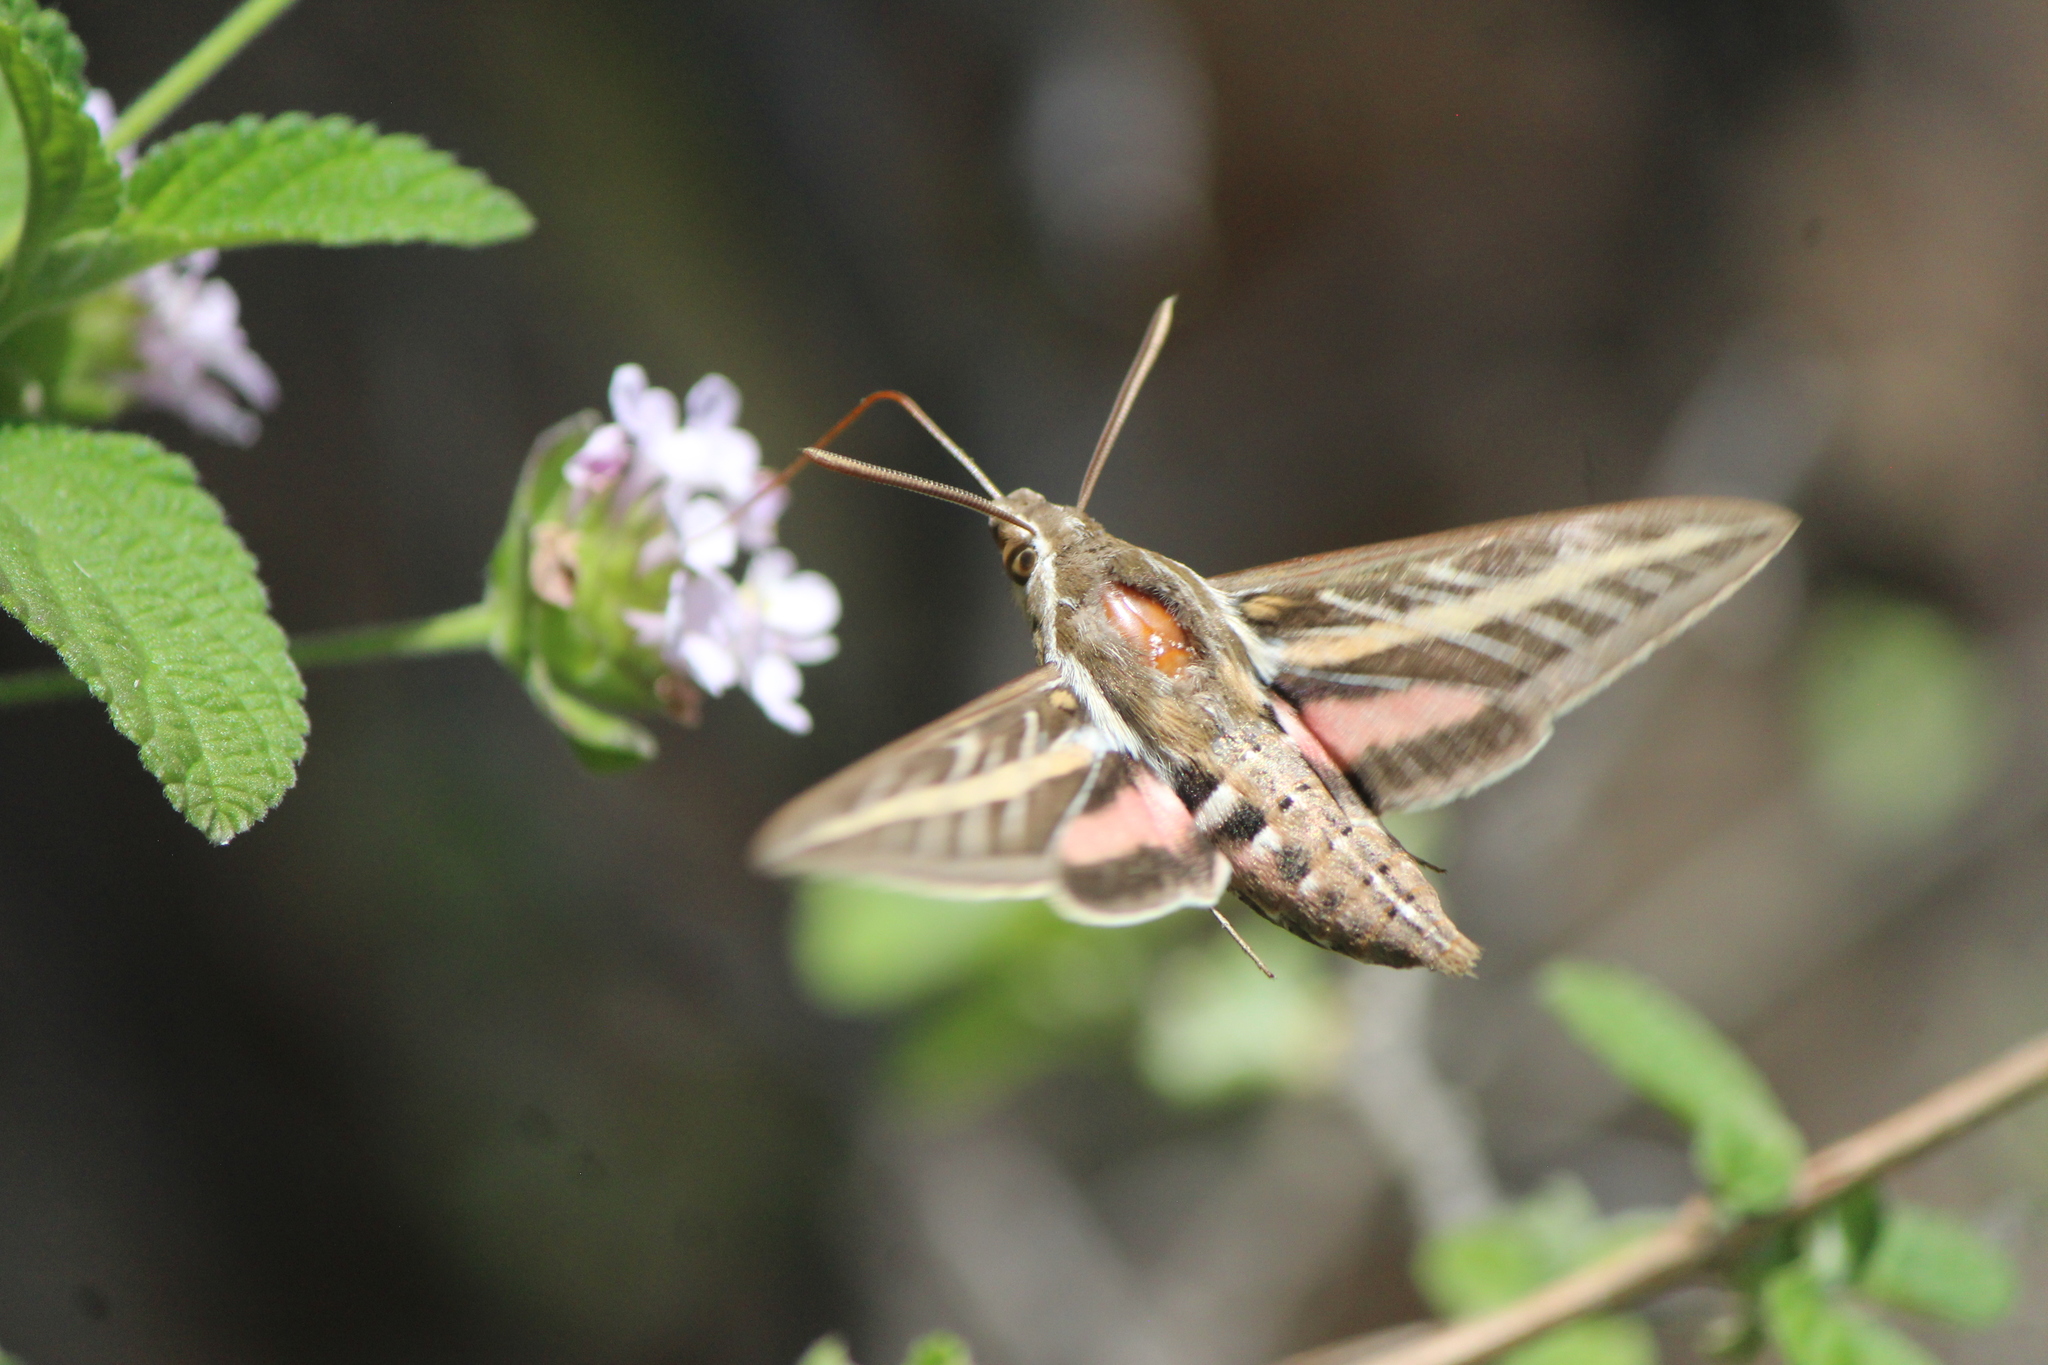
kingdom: Animalia
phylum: Arthropoda
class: Insecta
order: Lepidoptera
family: Sphingidae
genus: Hyles
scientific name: Hyles lineata
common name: White-lined sphinx
